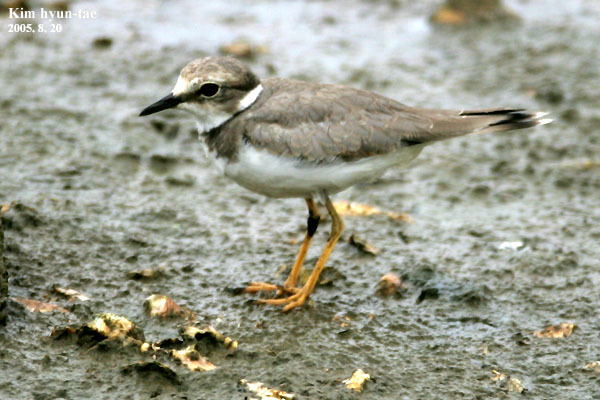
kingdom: Animalia
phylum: Chordata
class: Aves
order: Charadriiformes
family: Charadriidae
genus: Charadrius
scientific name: Charadrius dubius
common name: Little ringed plover
